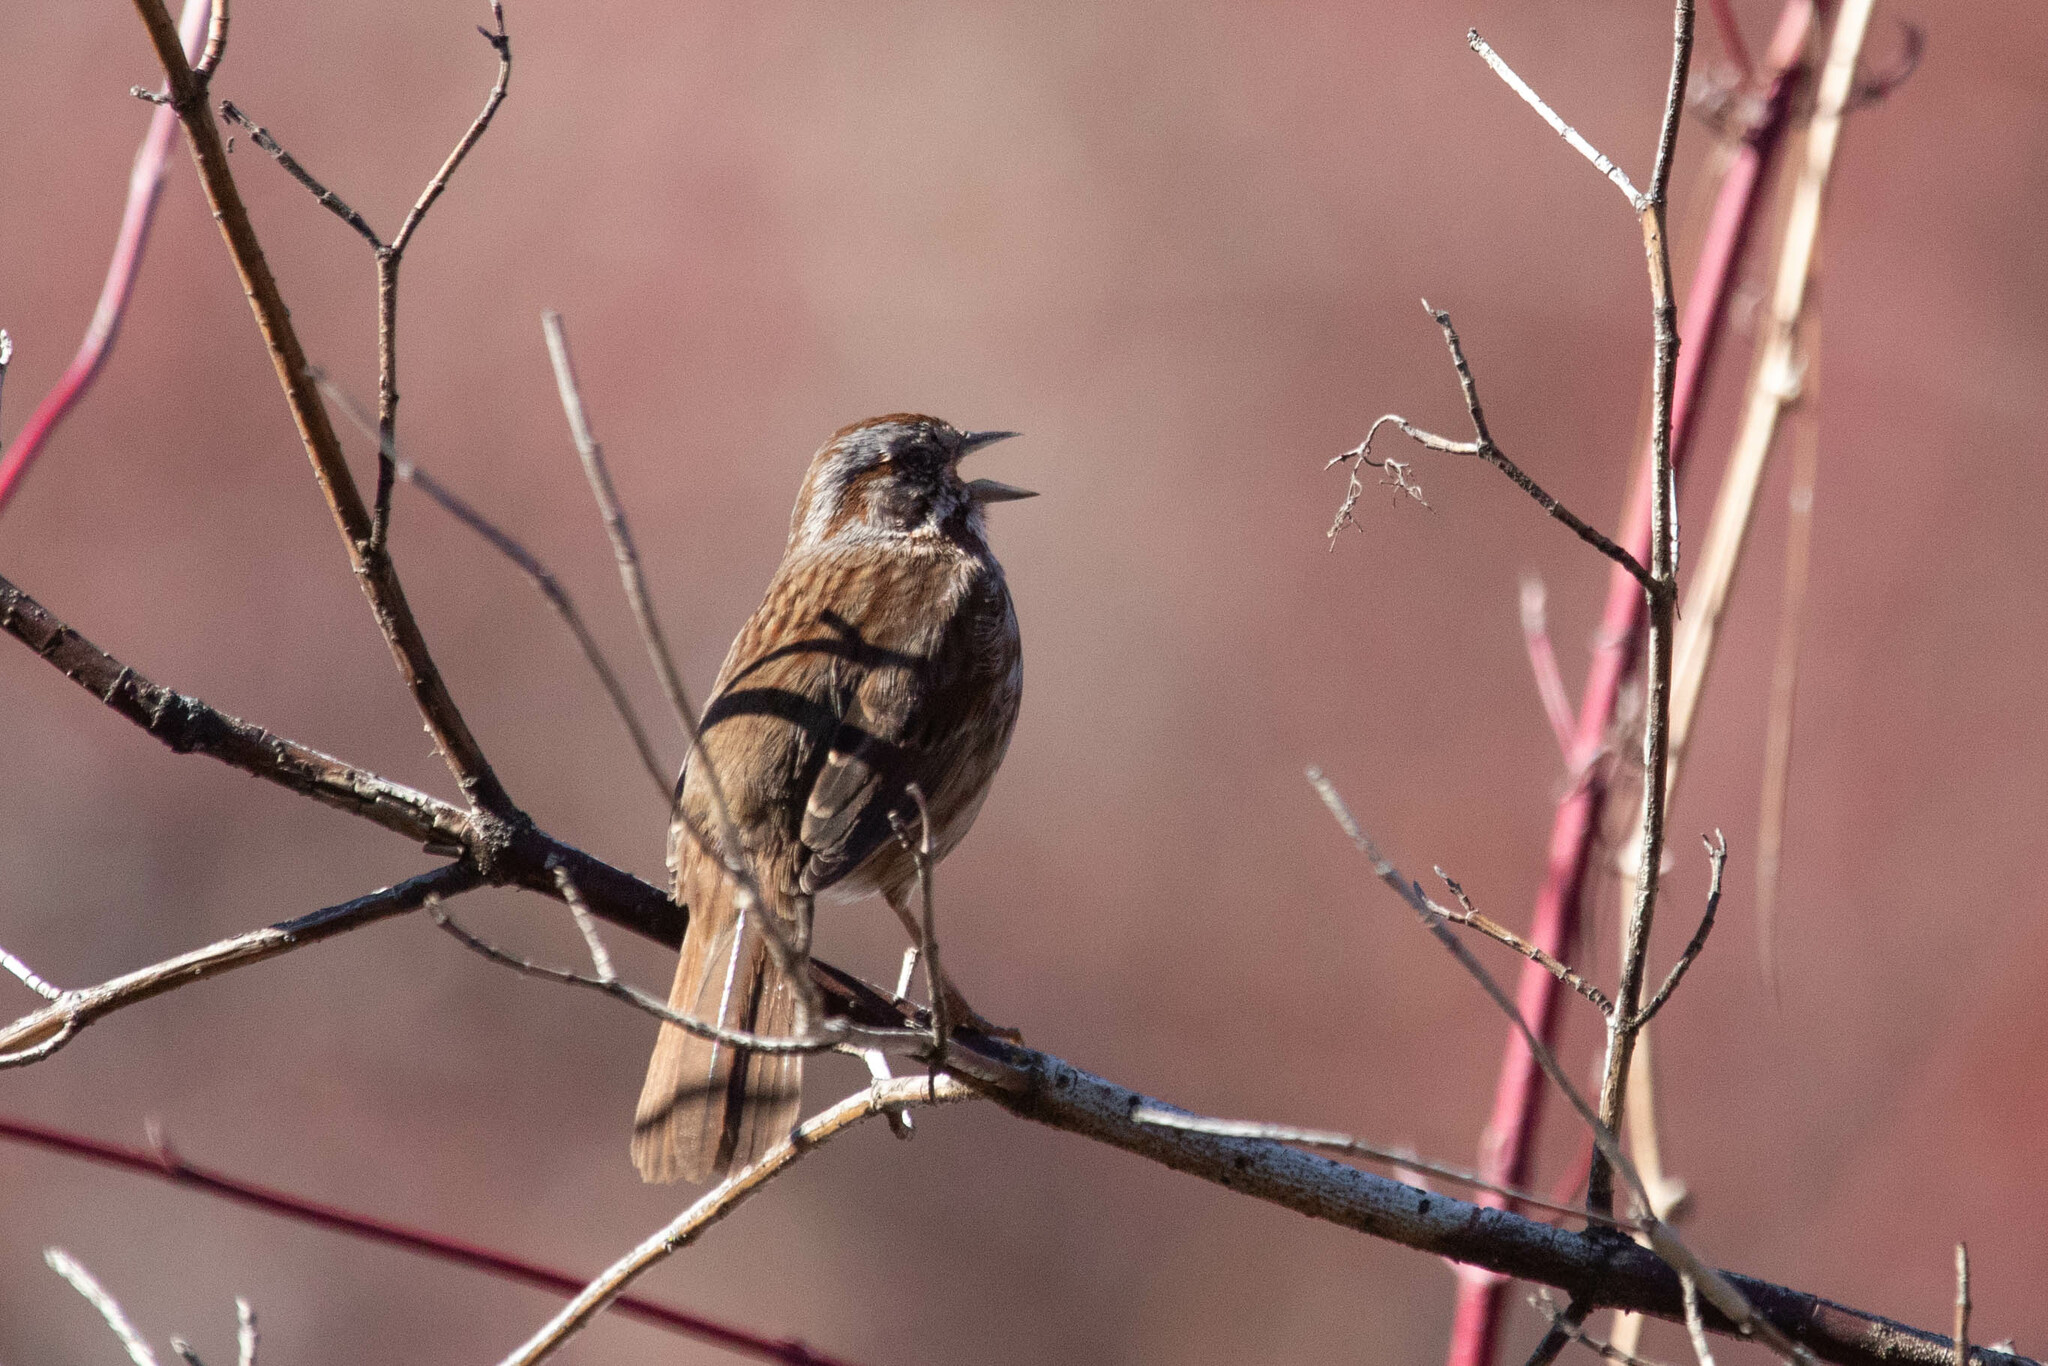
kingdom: Animalia
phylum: Chordata
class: Aves
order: Passeriformes
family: Passerellidae
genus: Melospiza
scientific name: Melospiza melodia
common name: Song sparrow
